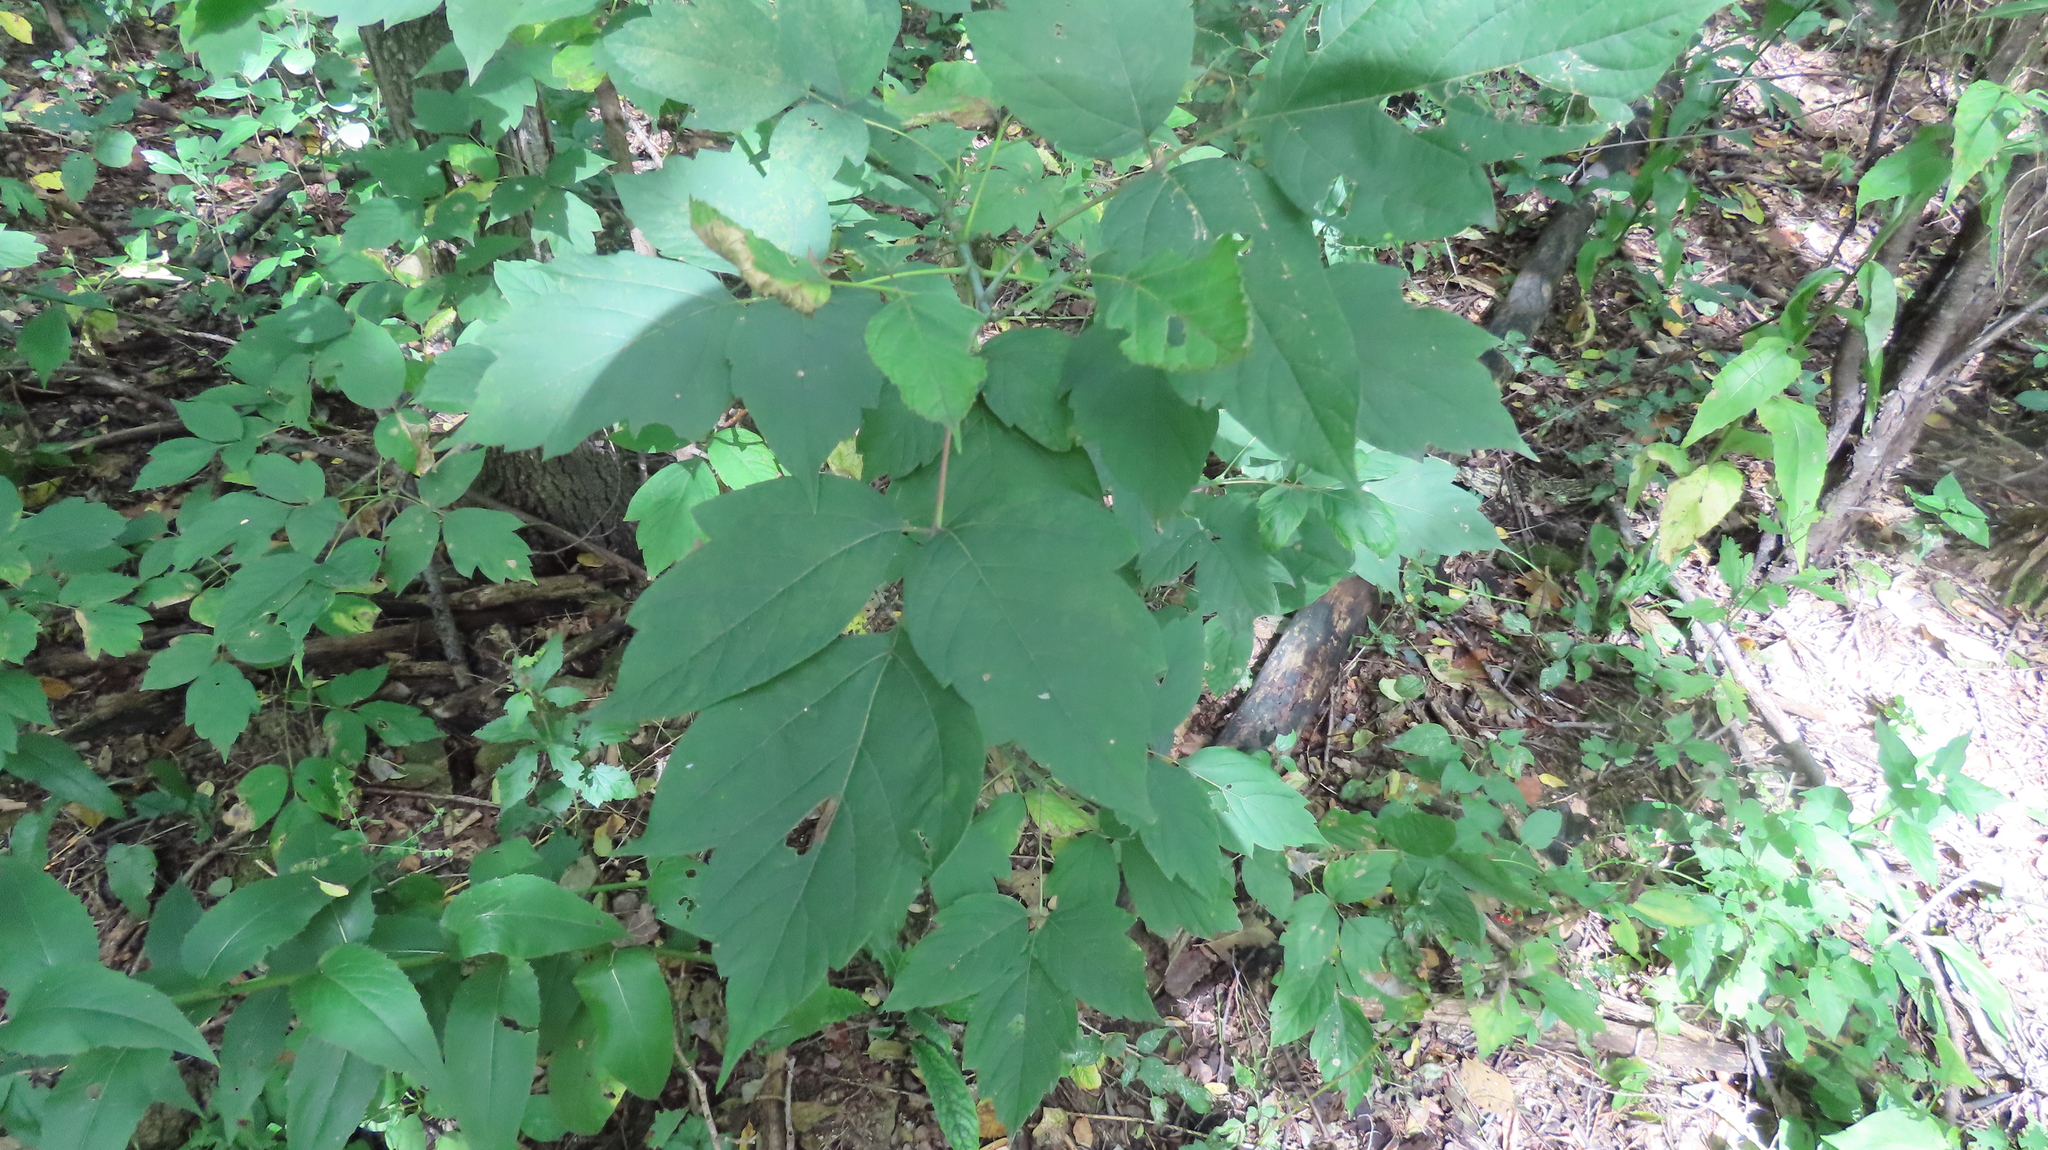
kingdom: Plantae
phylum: Tracheophyta
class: Magnoliopsida
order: Sapindales
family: Sapindaceae
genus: Acer
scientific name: Acer negundo
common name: Ashleaf maple
